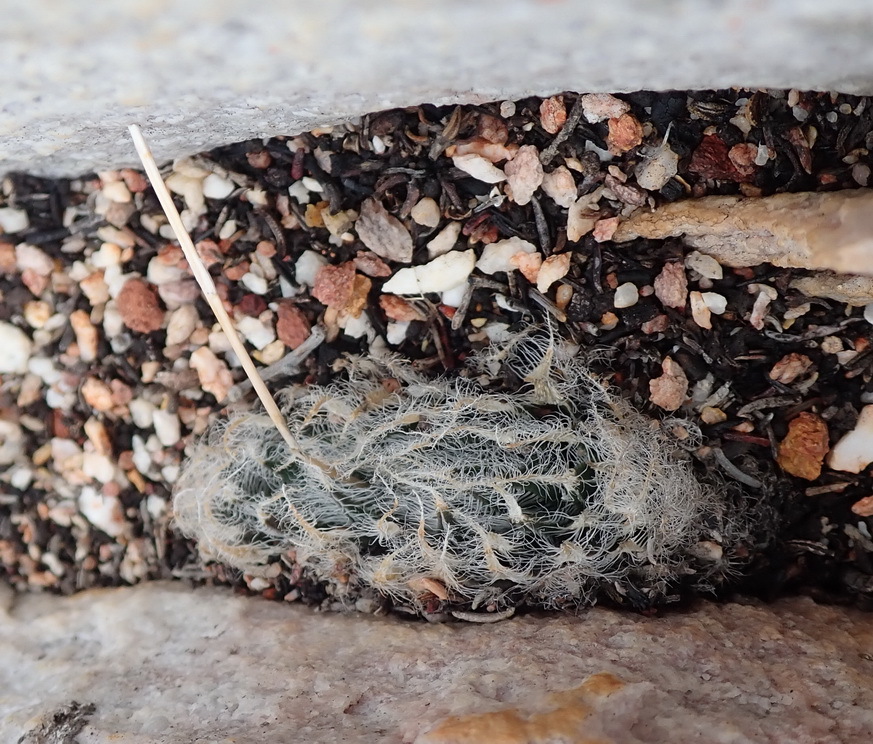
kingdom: Plantae
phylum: Tracheophyta
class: Liliopsida
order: Asparagales
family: Asphodelaceae
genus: Haworthia
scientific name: Haworthia arachnoidea
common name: Cobweb-aloe
